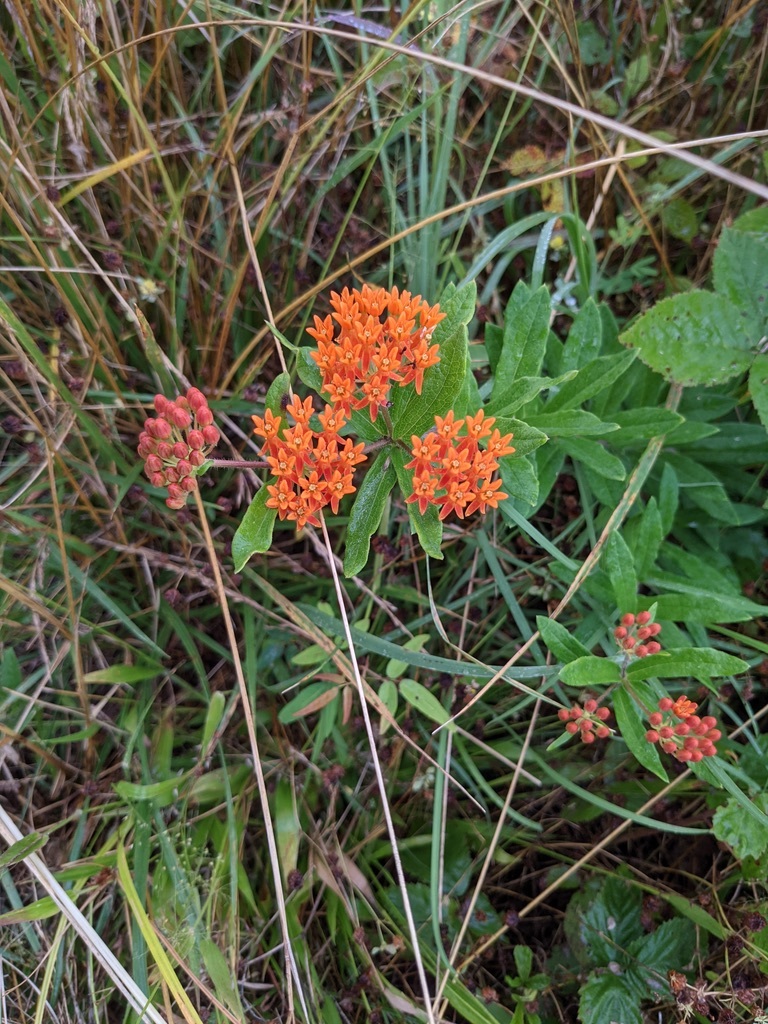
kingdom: Plantae
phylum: Tracheophyta
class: Magnoliopsida
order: Gentianales
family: Apocynaceae
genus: Asclepias
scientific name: Asclepias tuberosa
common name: Butterfly milkweed
